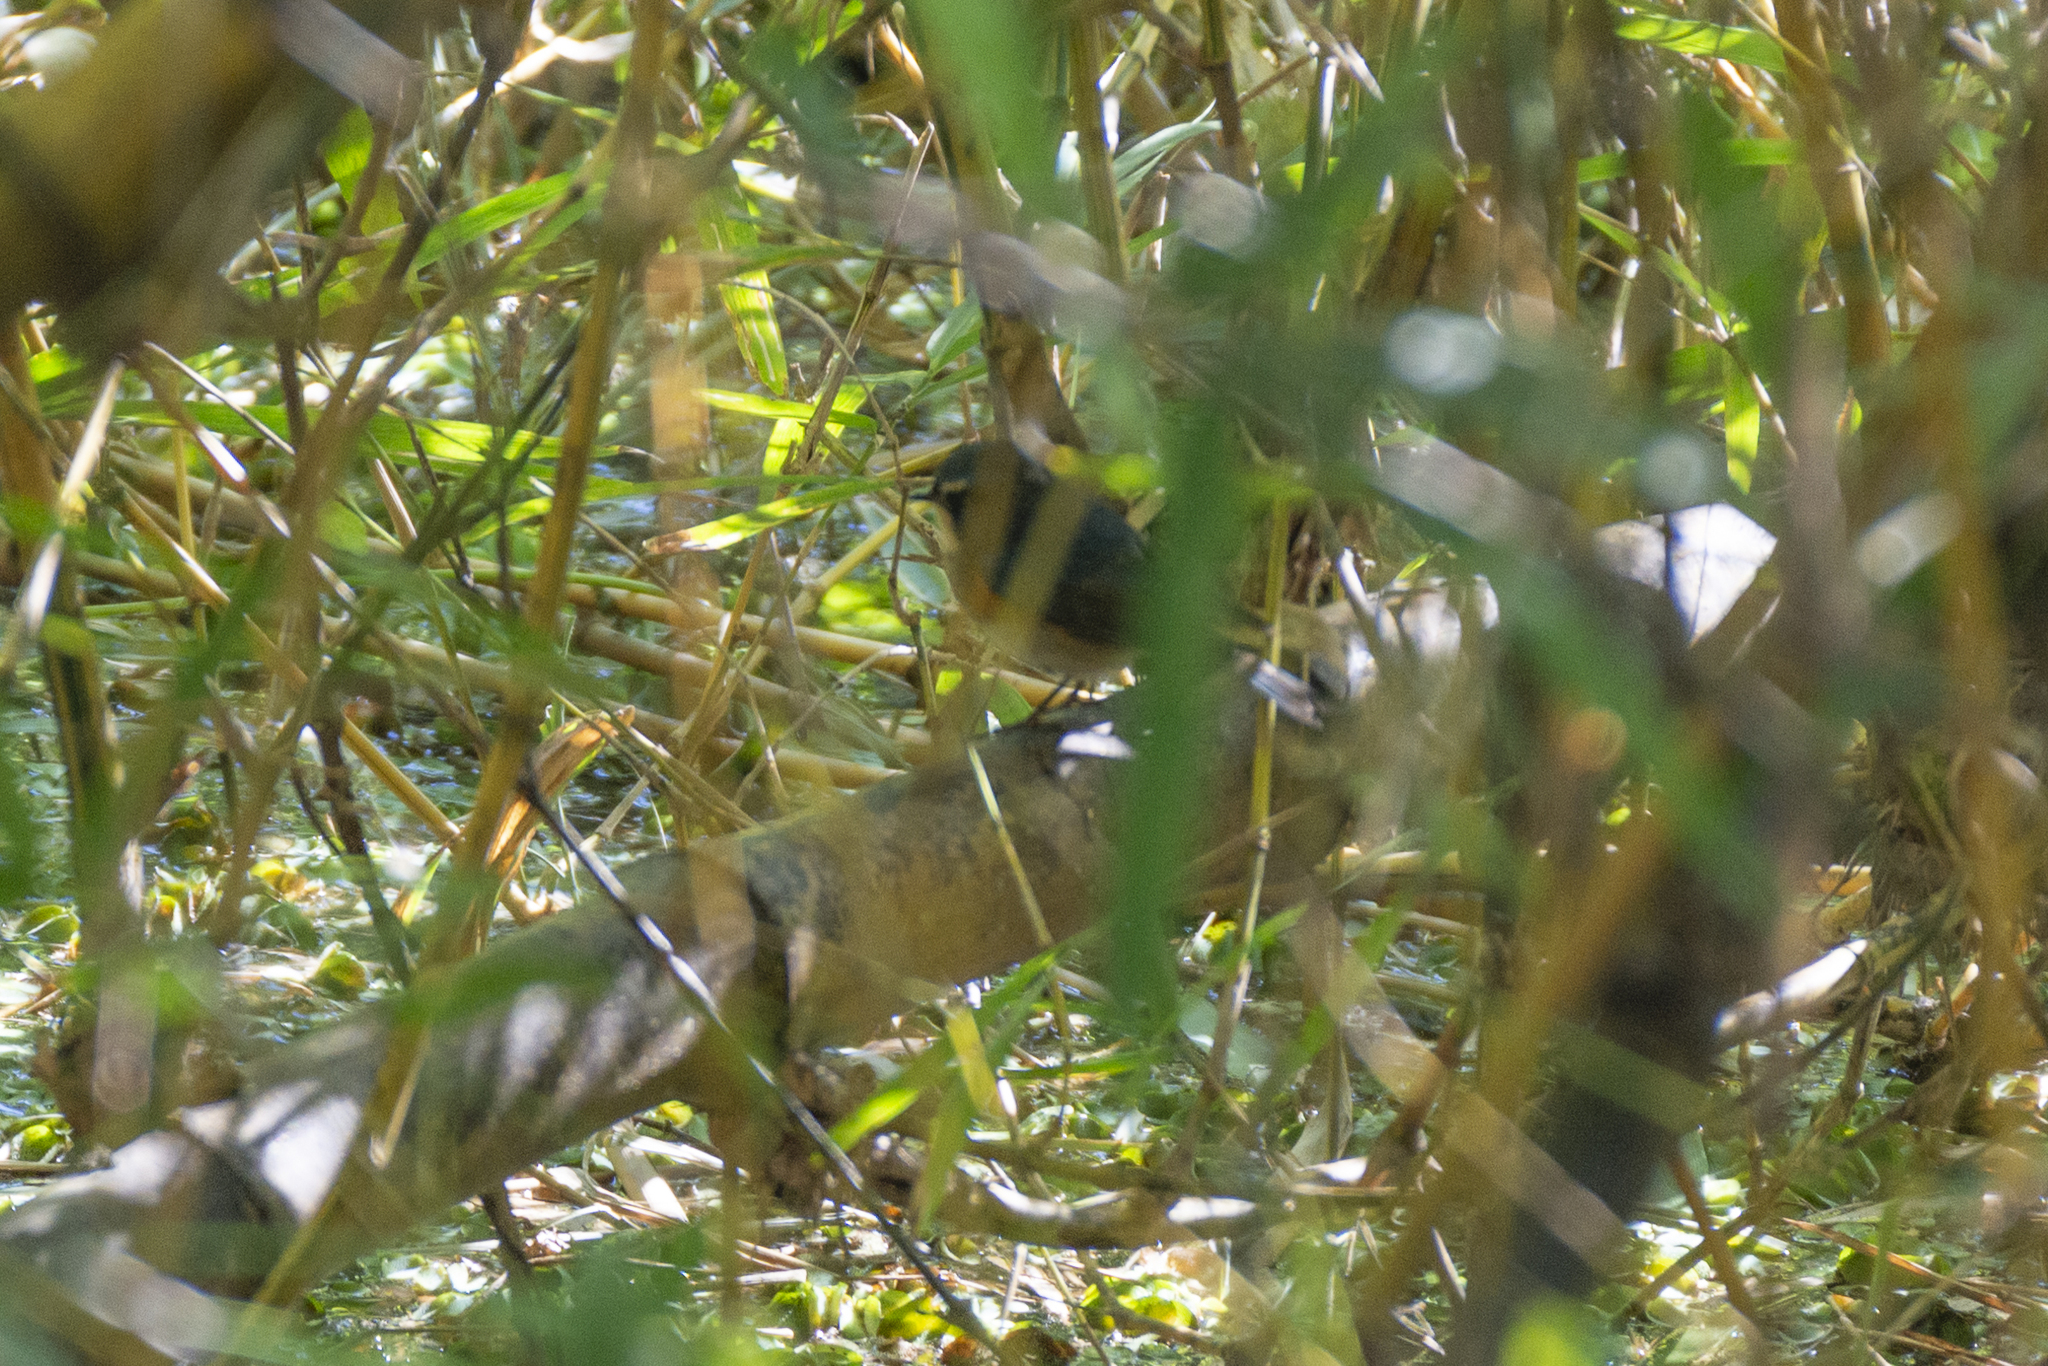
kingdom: Animalia
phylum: Chordata
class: Aves
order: Passeriformes
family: Muscicapidae
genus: Tarsiger
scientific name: Tarsiger cyanurus
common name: Red-flanked bluetail
